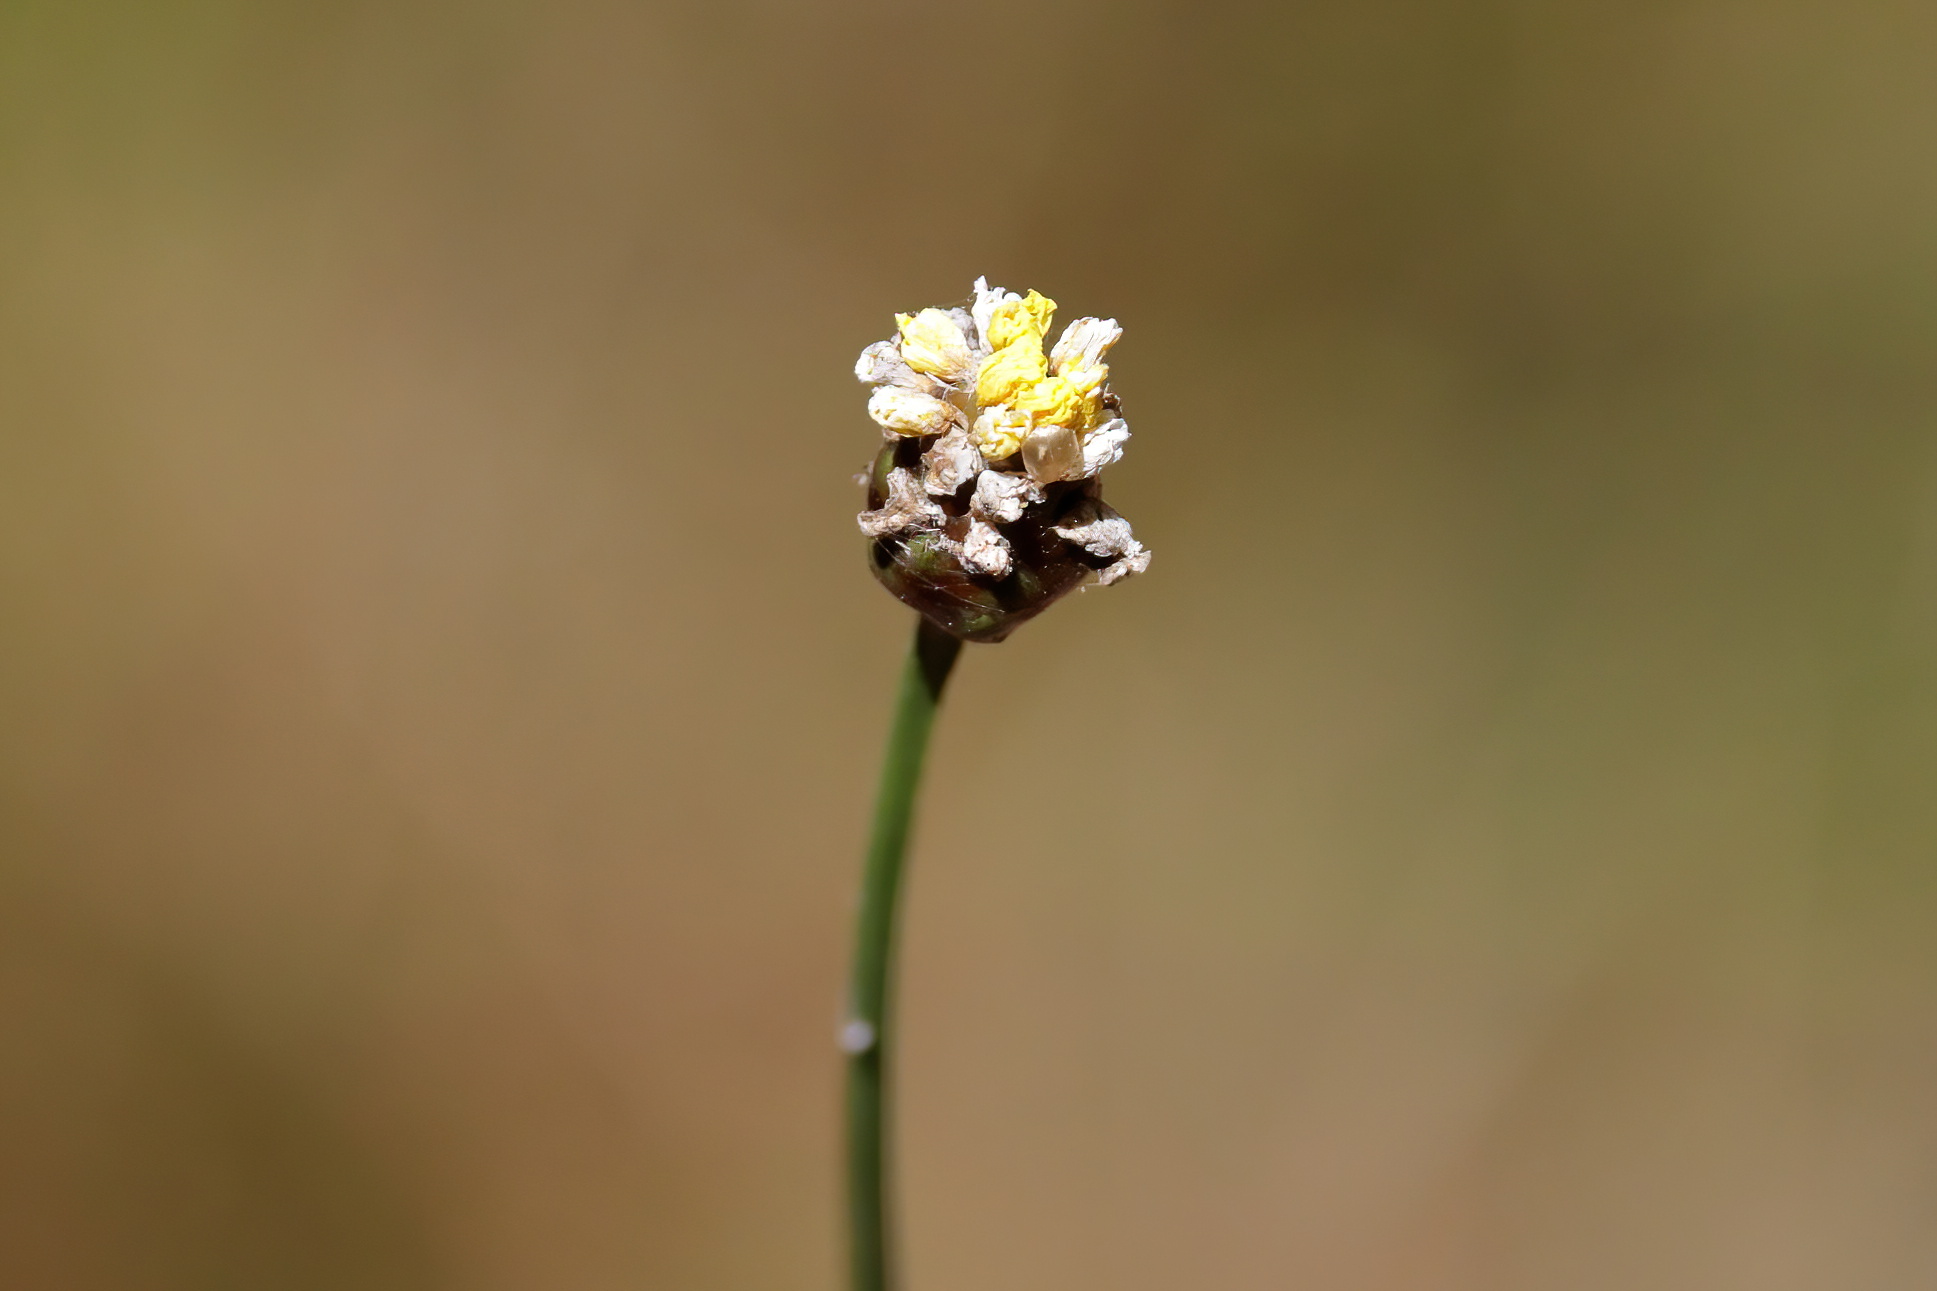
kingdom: Plantae
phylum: Tracheophyta
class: Liliopsida
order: Poales
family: Xyridaceae
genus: Xyris
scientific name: Xyris platylepis
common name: Tall yelloweyed grass
